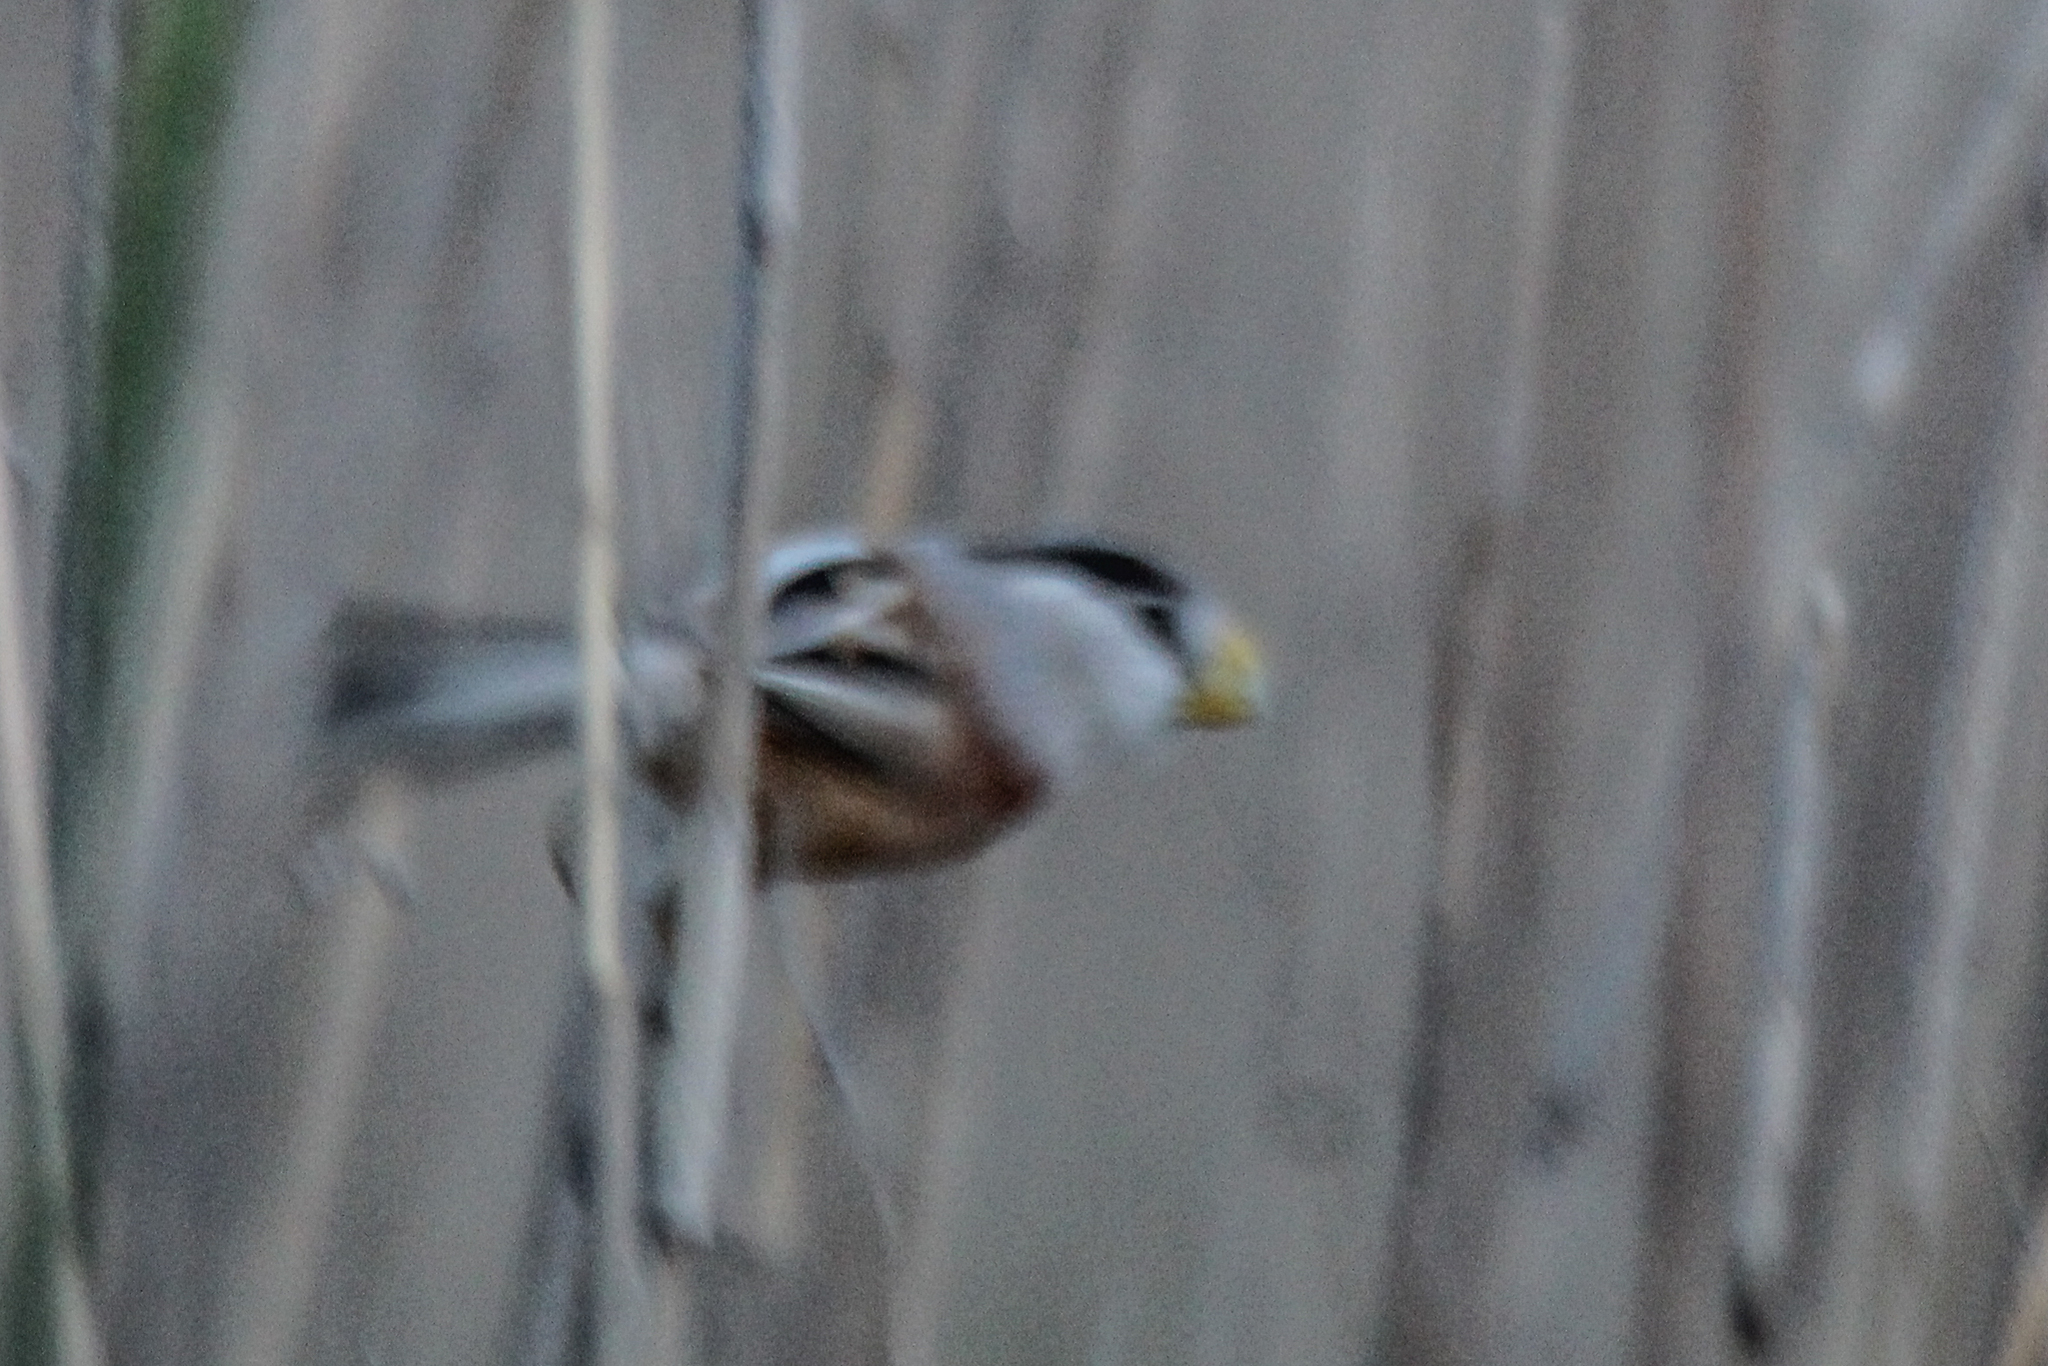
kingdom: Animalia
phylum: Chordata
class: Aves
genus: Calamornis
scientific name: Calamornis
